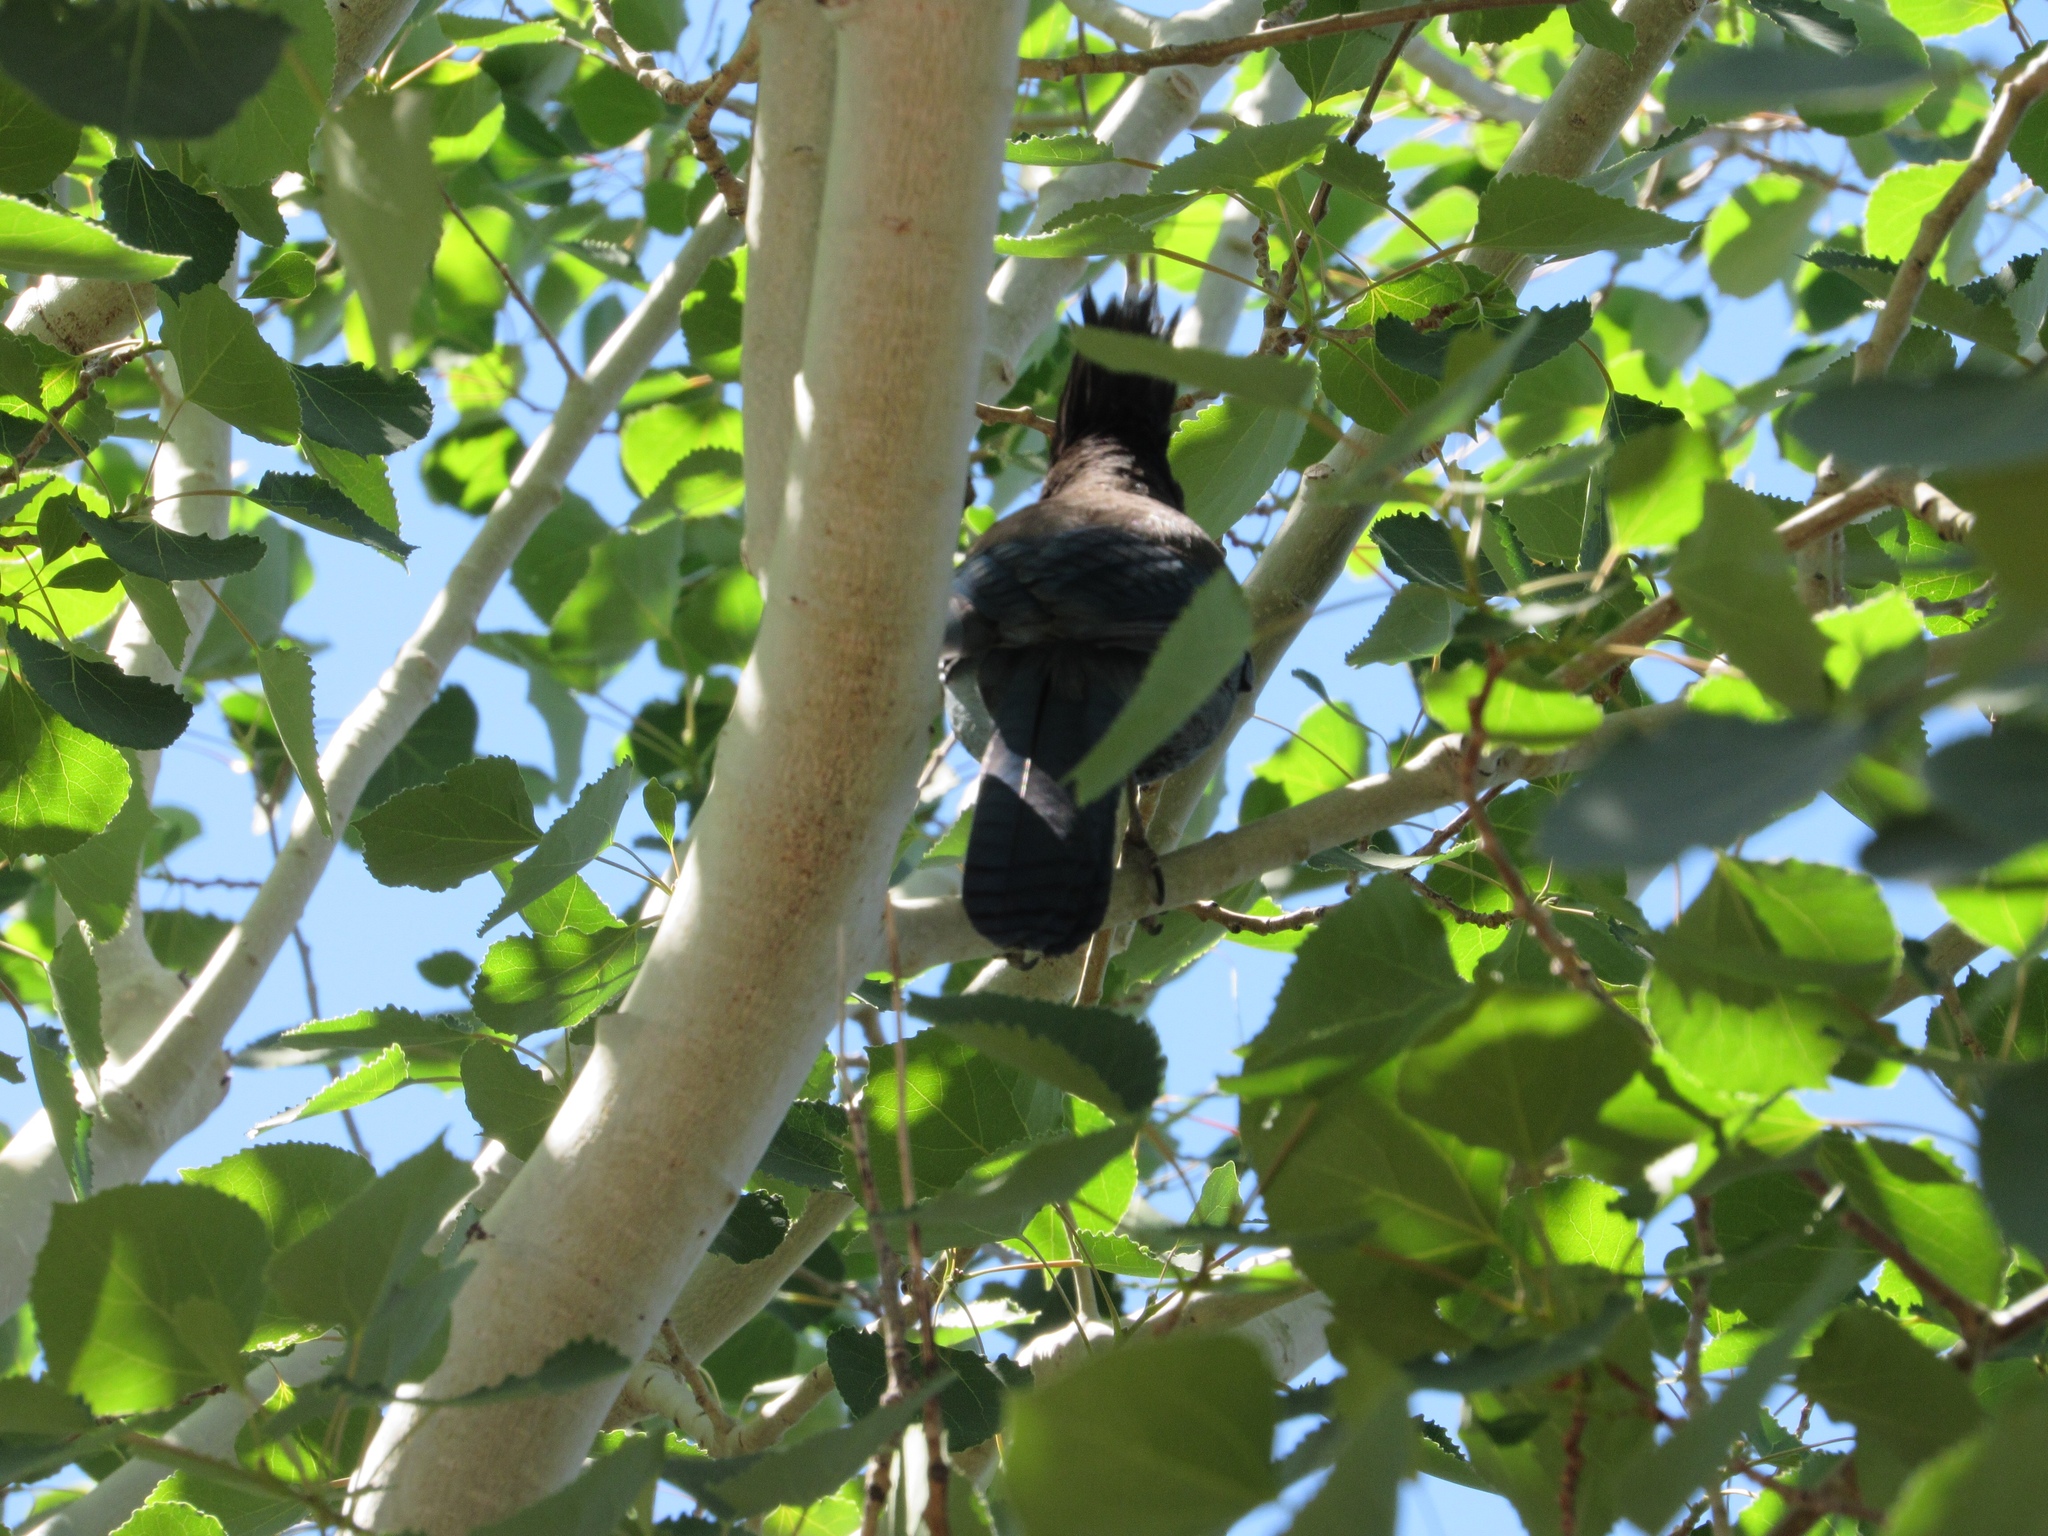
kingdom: Animalia
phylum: Chordata
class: Aves
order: Passeriformes
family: Corvidae
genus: Cyanocitta
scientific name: Cyanocitta stelleri
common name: Steller's jay
